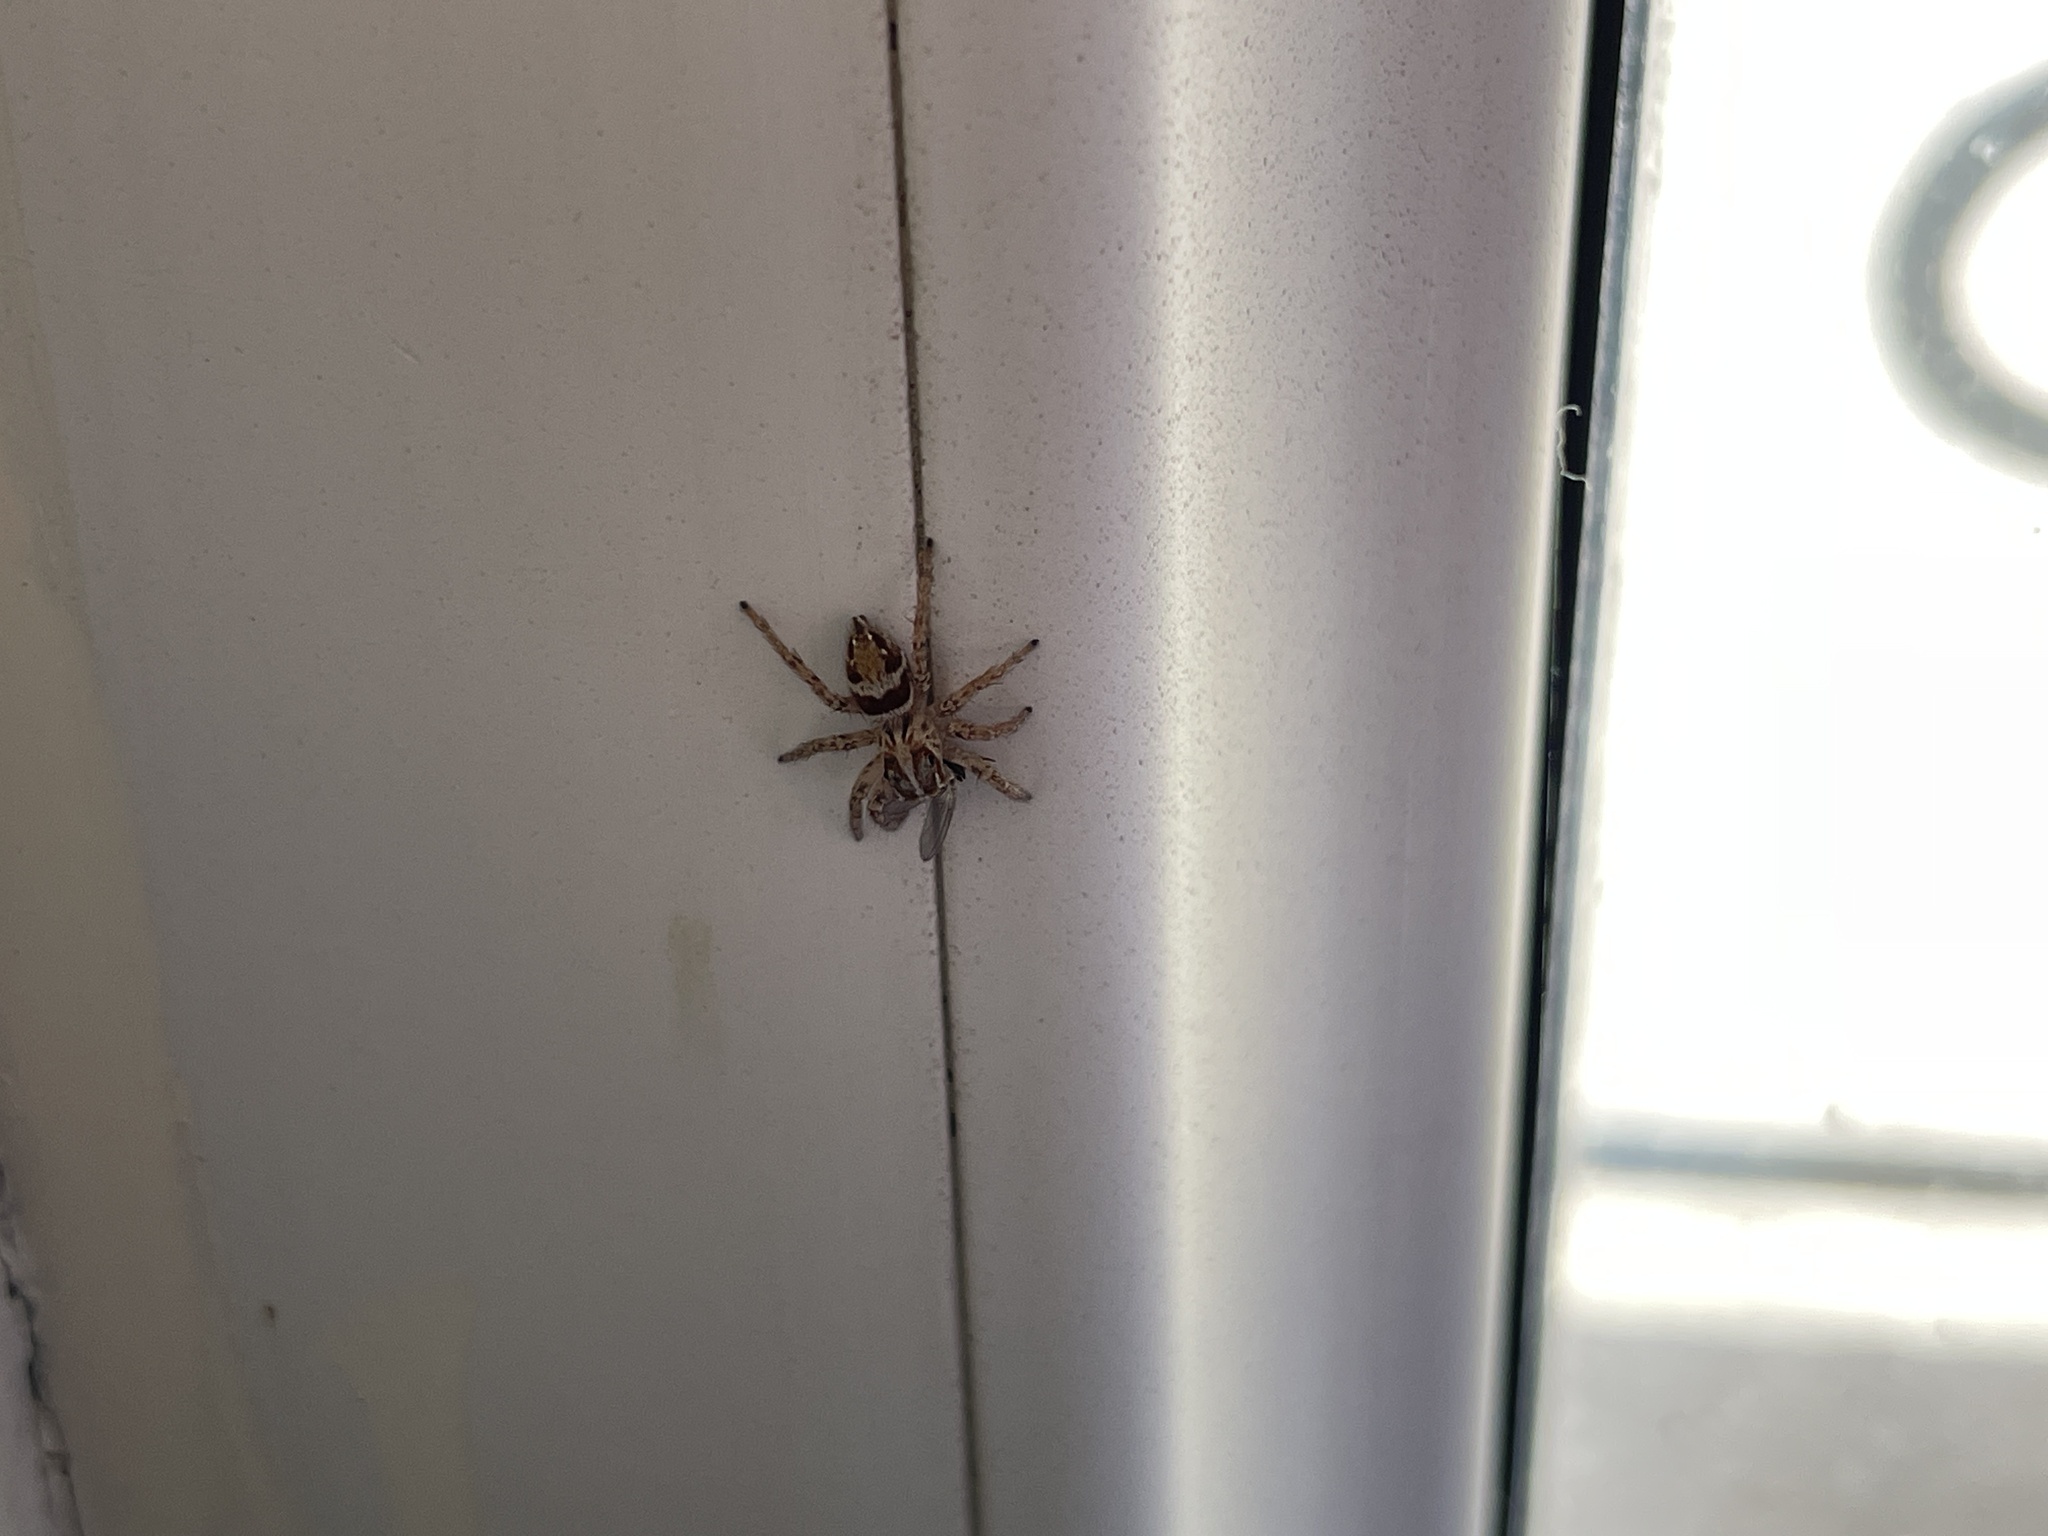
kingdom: Animalia
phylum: Arthropoda
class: Arachnida
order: Araneae
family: Salticidae
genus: Plexippus
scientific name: Plexippus strandi
